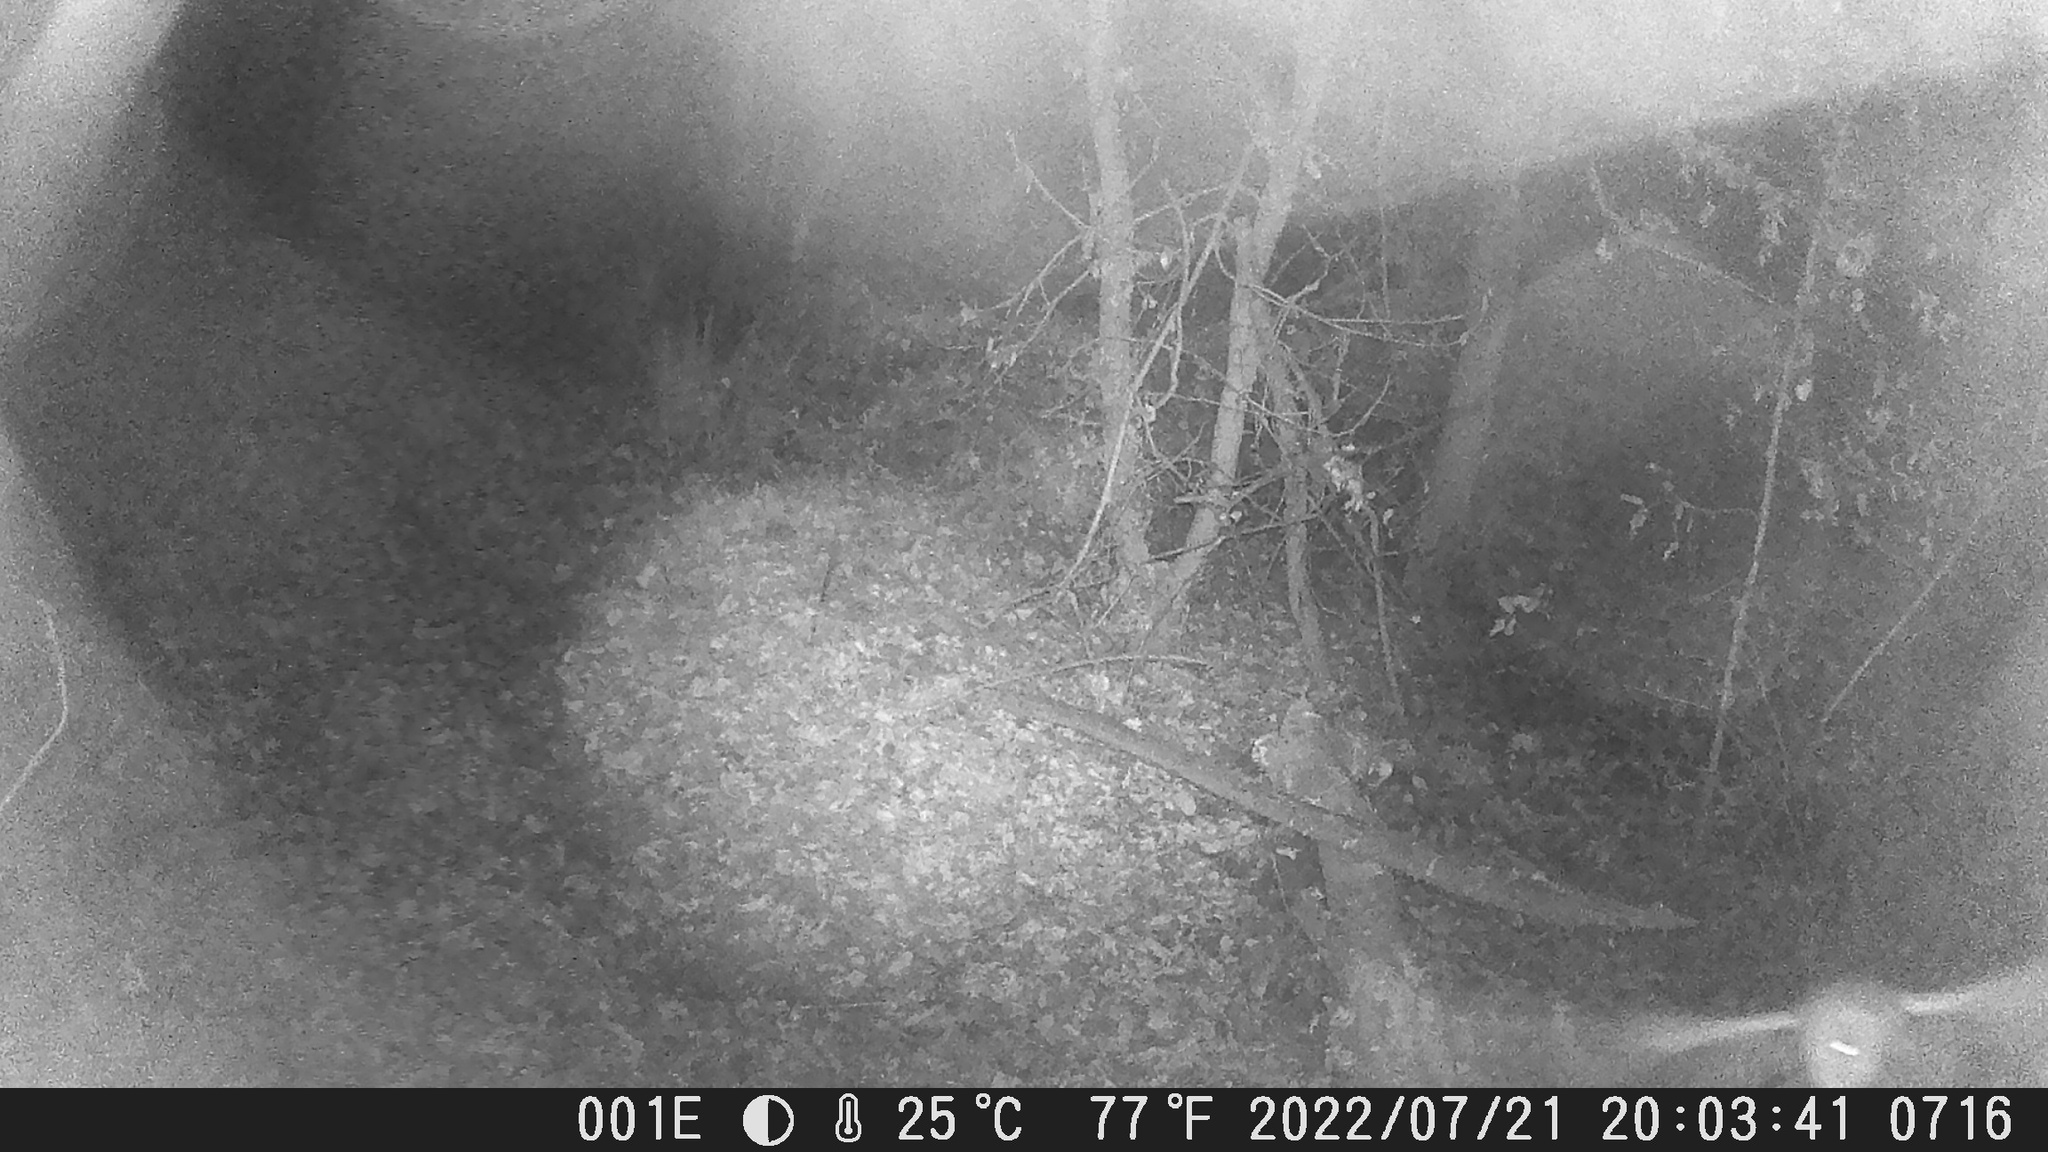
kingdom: Animalia
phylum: Chordata
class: Aves
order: Strigiformes
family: Tytonidae
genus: Tyto
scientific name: Tyto alba
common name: Barn owl
